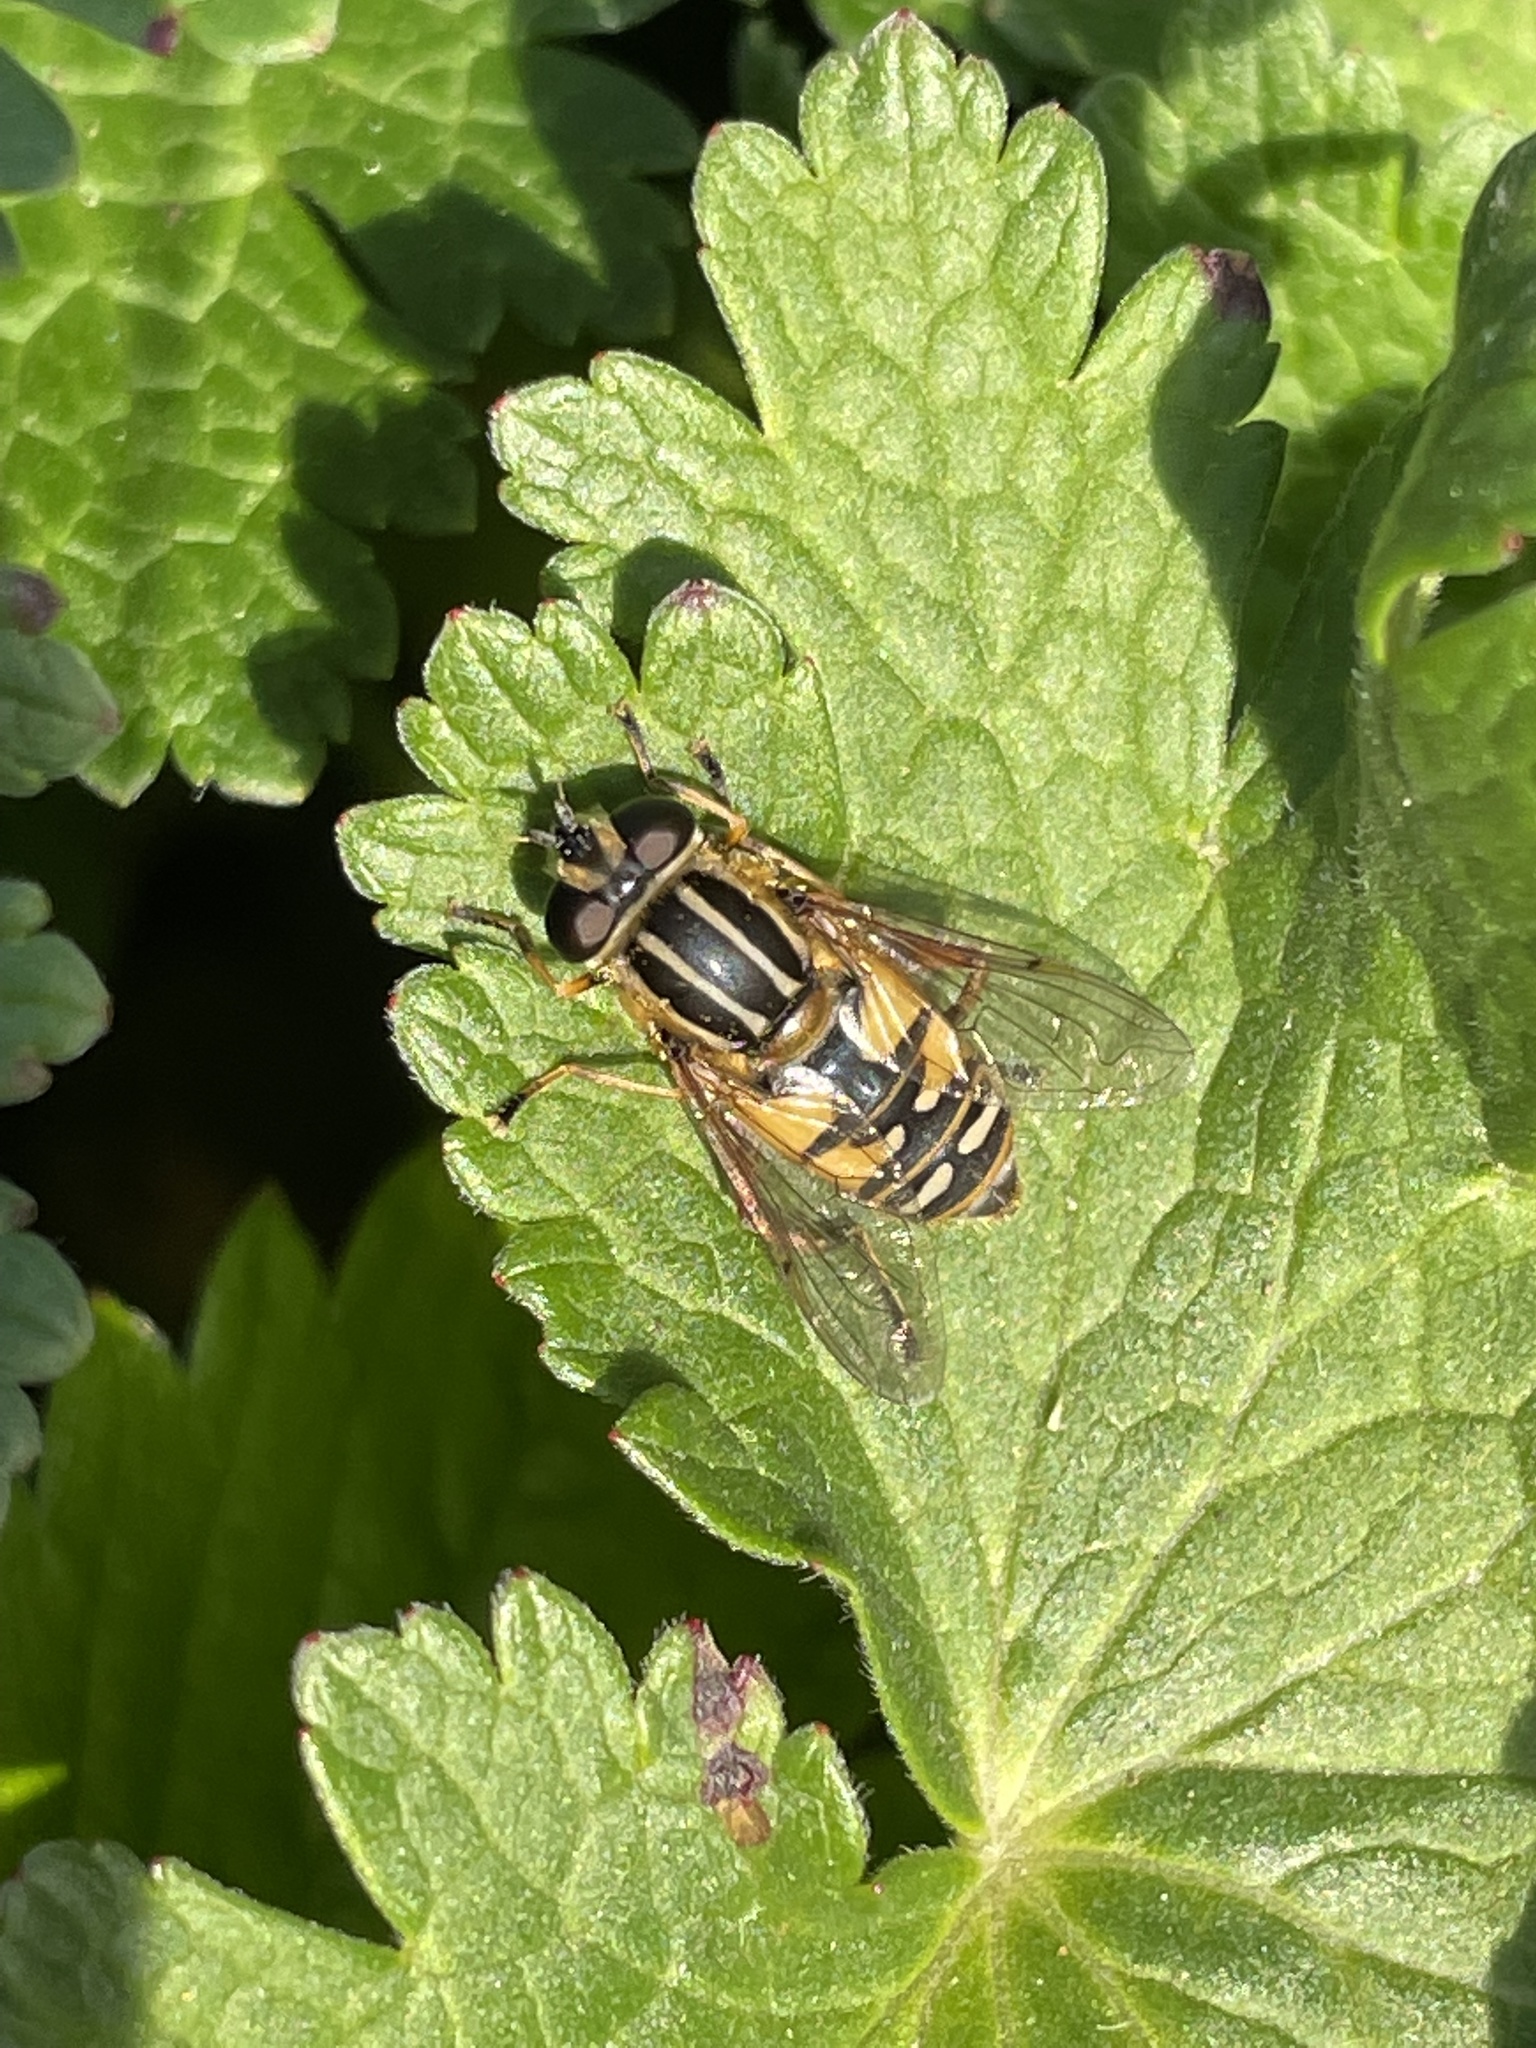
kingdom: Animalia
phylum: Arthropoda
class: Insecta
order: Diptera
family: Syrphidae
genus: Helophilus
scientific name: Helophilus pendulus
